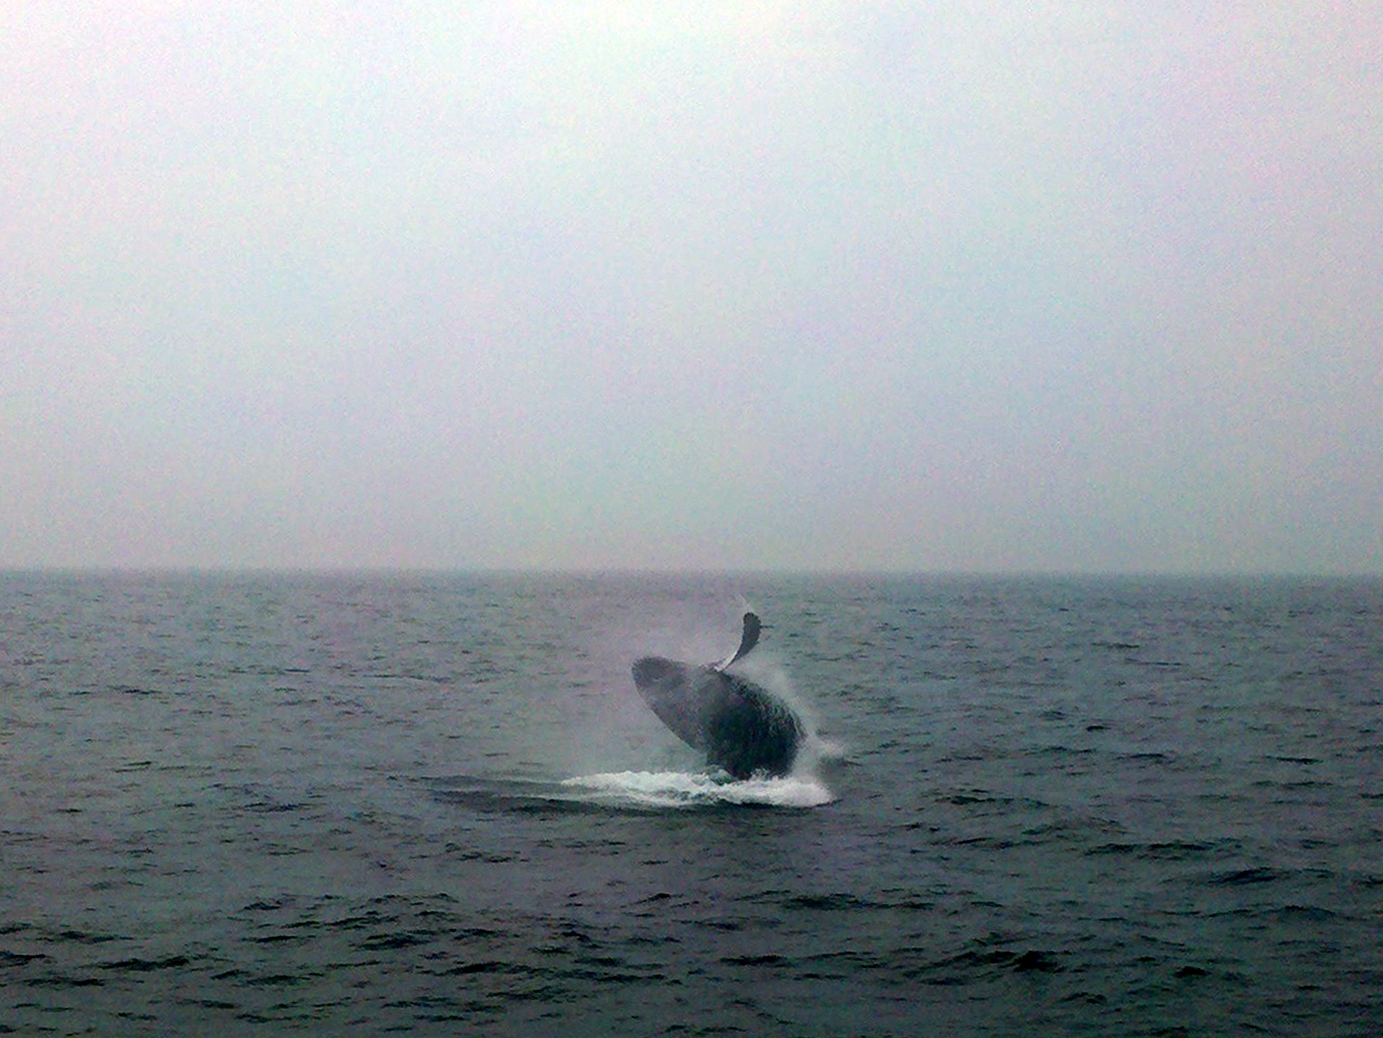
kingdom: Animalia
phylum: Chordata
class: Mammalia
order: Cetacea
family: Balaenopteridae
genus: Megaptera
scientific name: Megaptera novaeangliae
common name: Humpback whale
